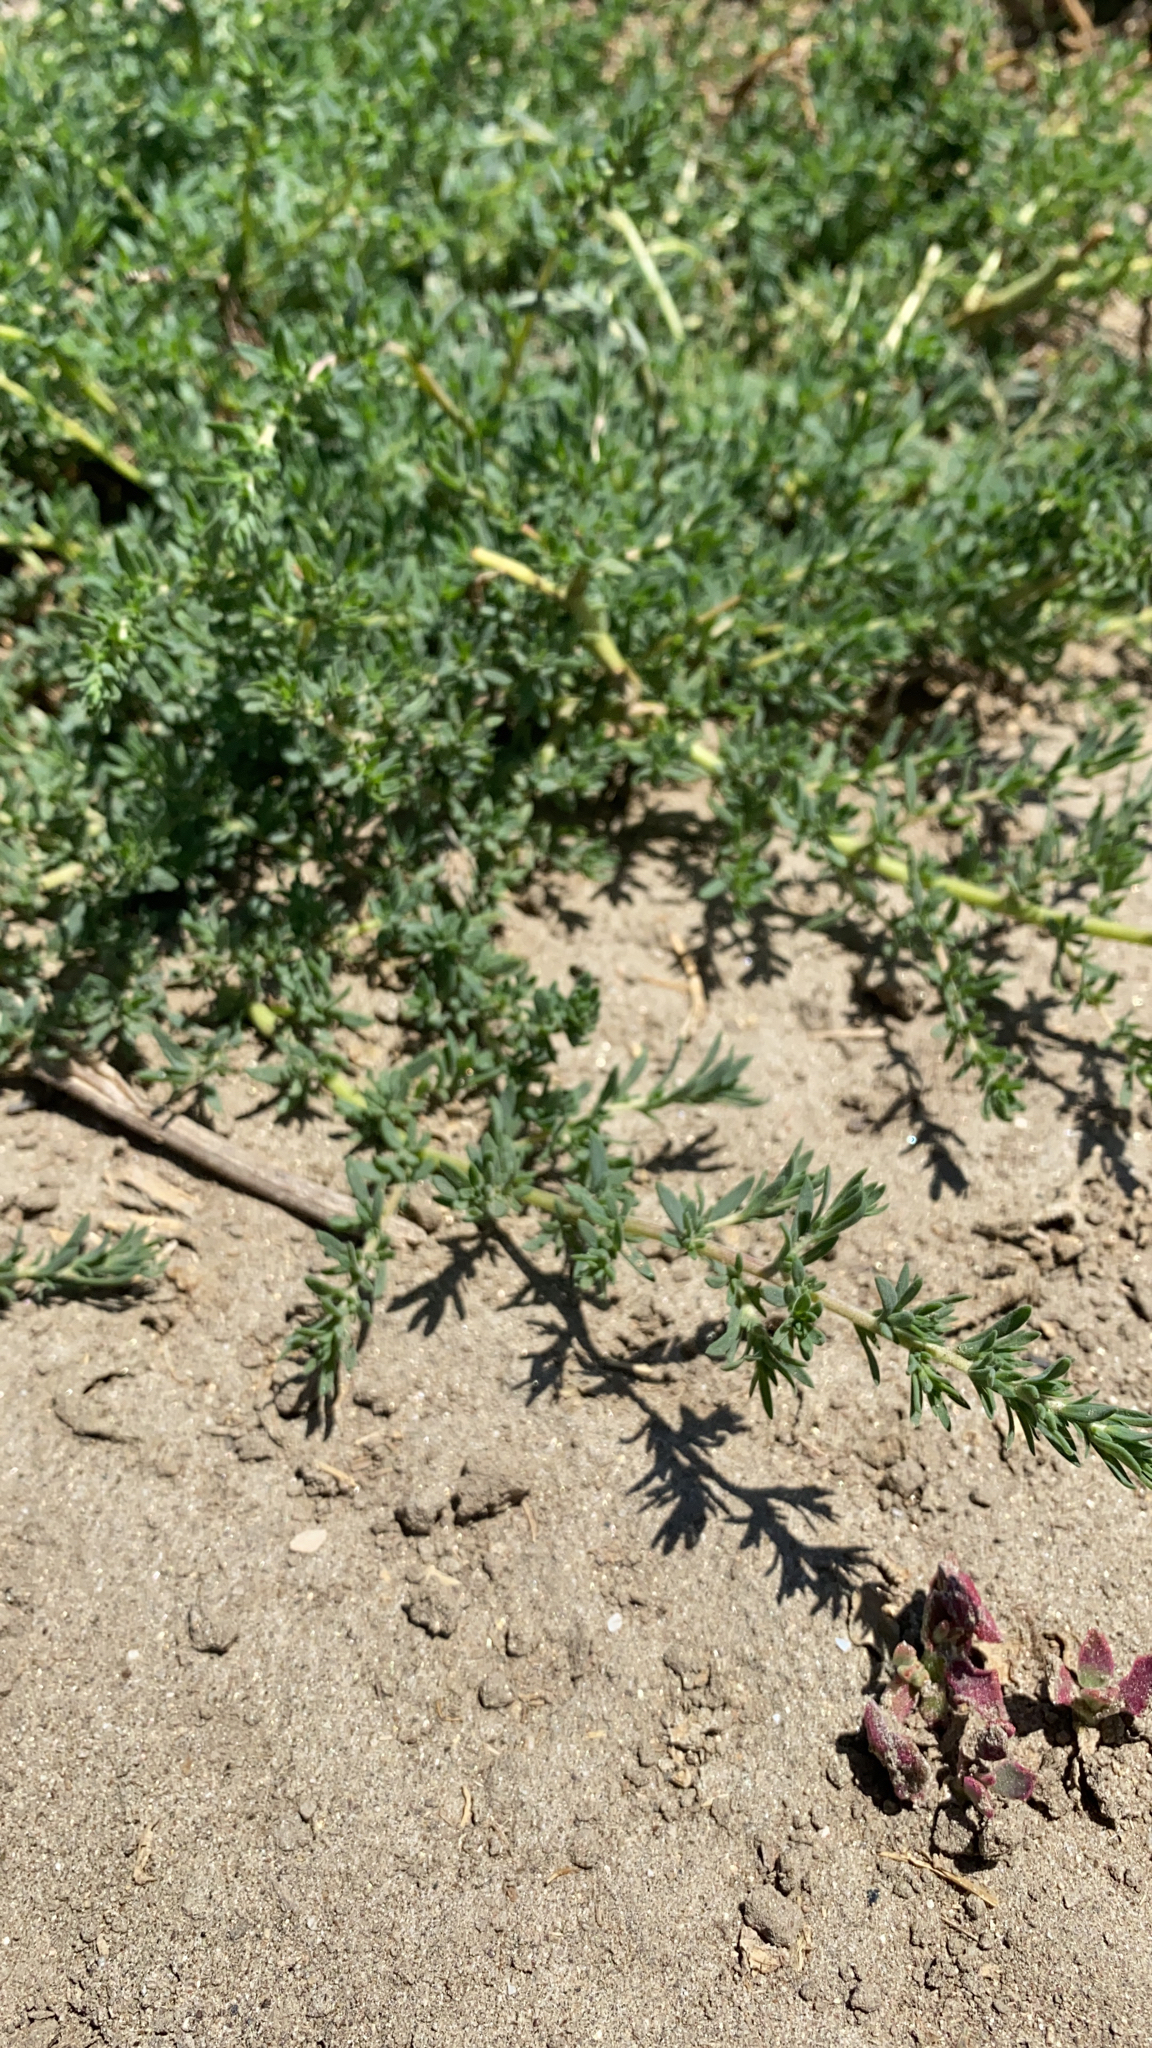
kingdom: Plantae
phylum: Tracheophyta
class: Magnoliopsida
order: Caryophyllales
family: Amaranthaceae
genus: Bassia
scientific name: Bassia hyssopifolia
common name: Fivehorn smotherweed
